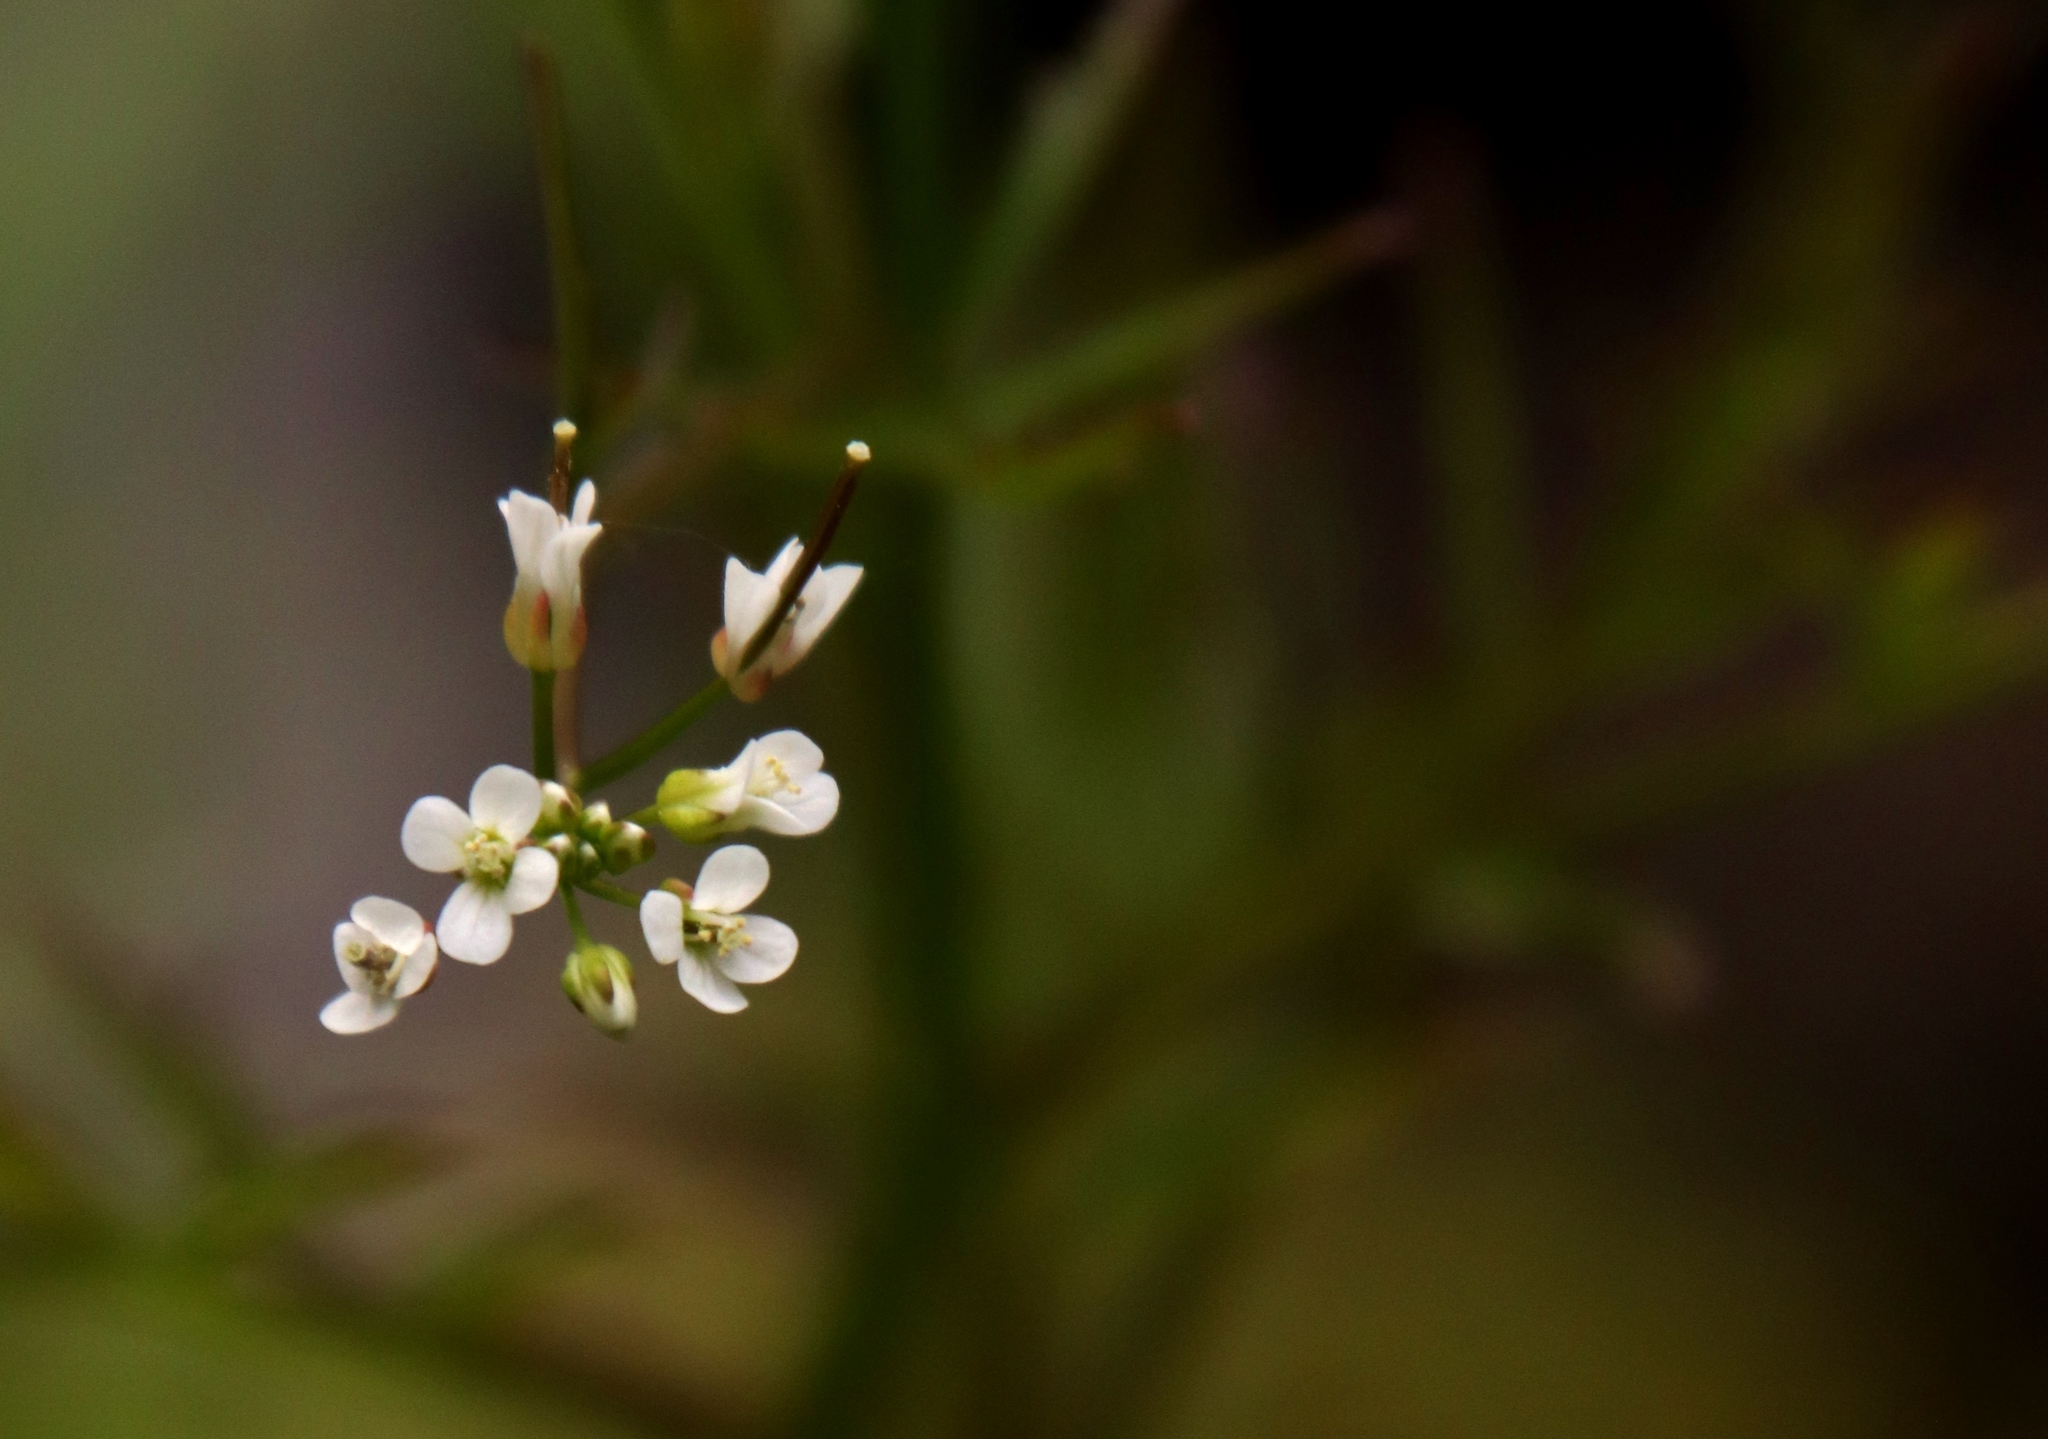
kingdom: Plantae
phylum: Tracheophyta
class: Magnoliopsida
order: Brassicales
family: Brassicaceae
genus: Cardamine
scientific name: Cardamine pensylvanica
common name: Pennsylvania bittercress
